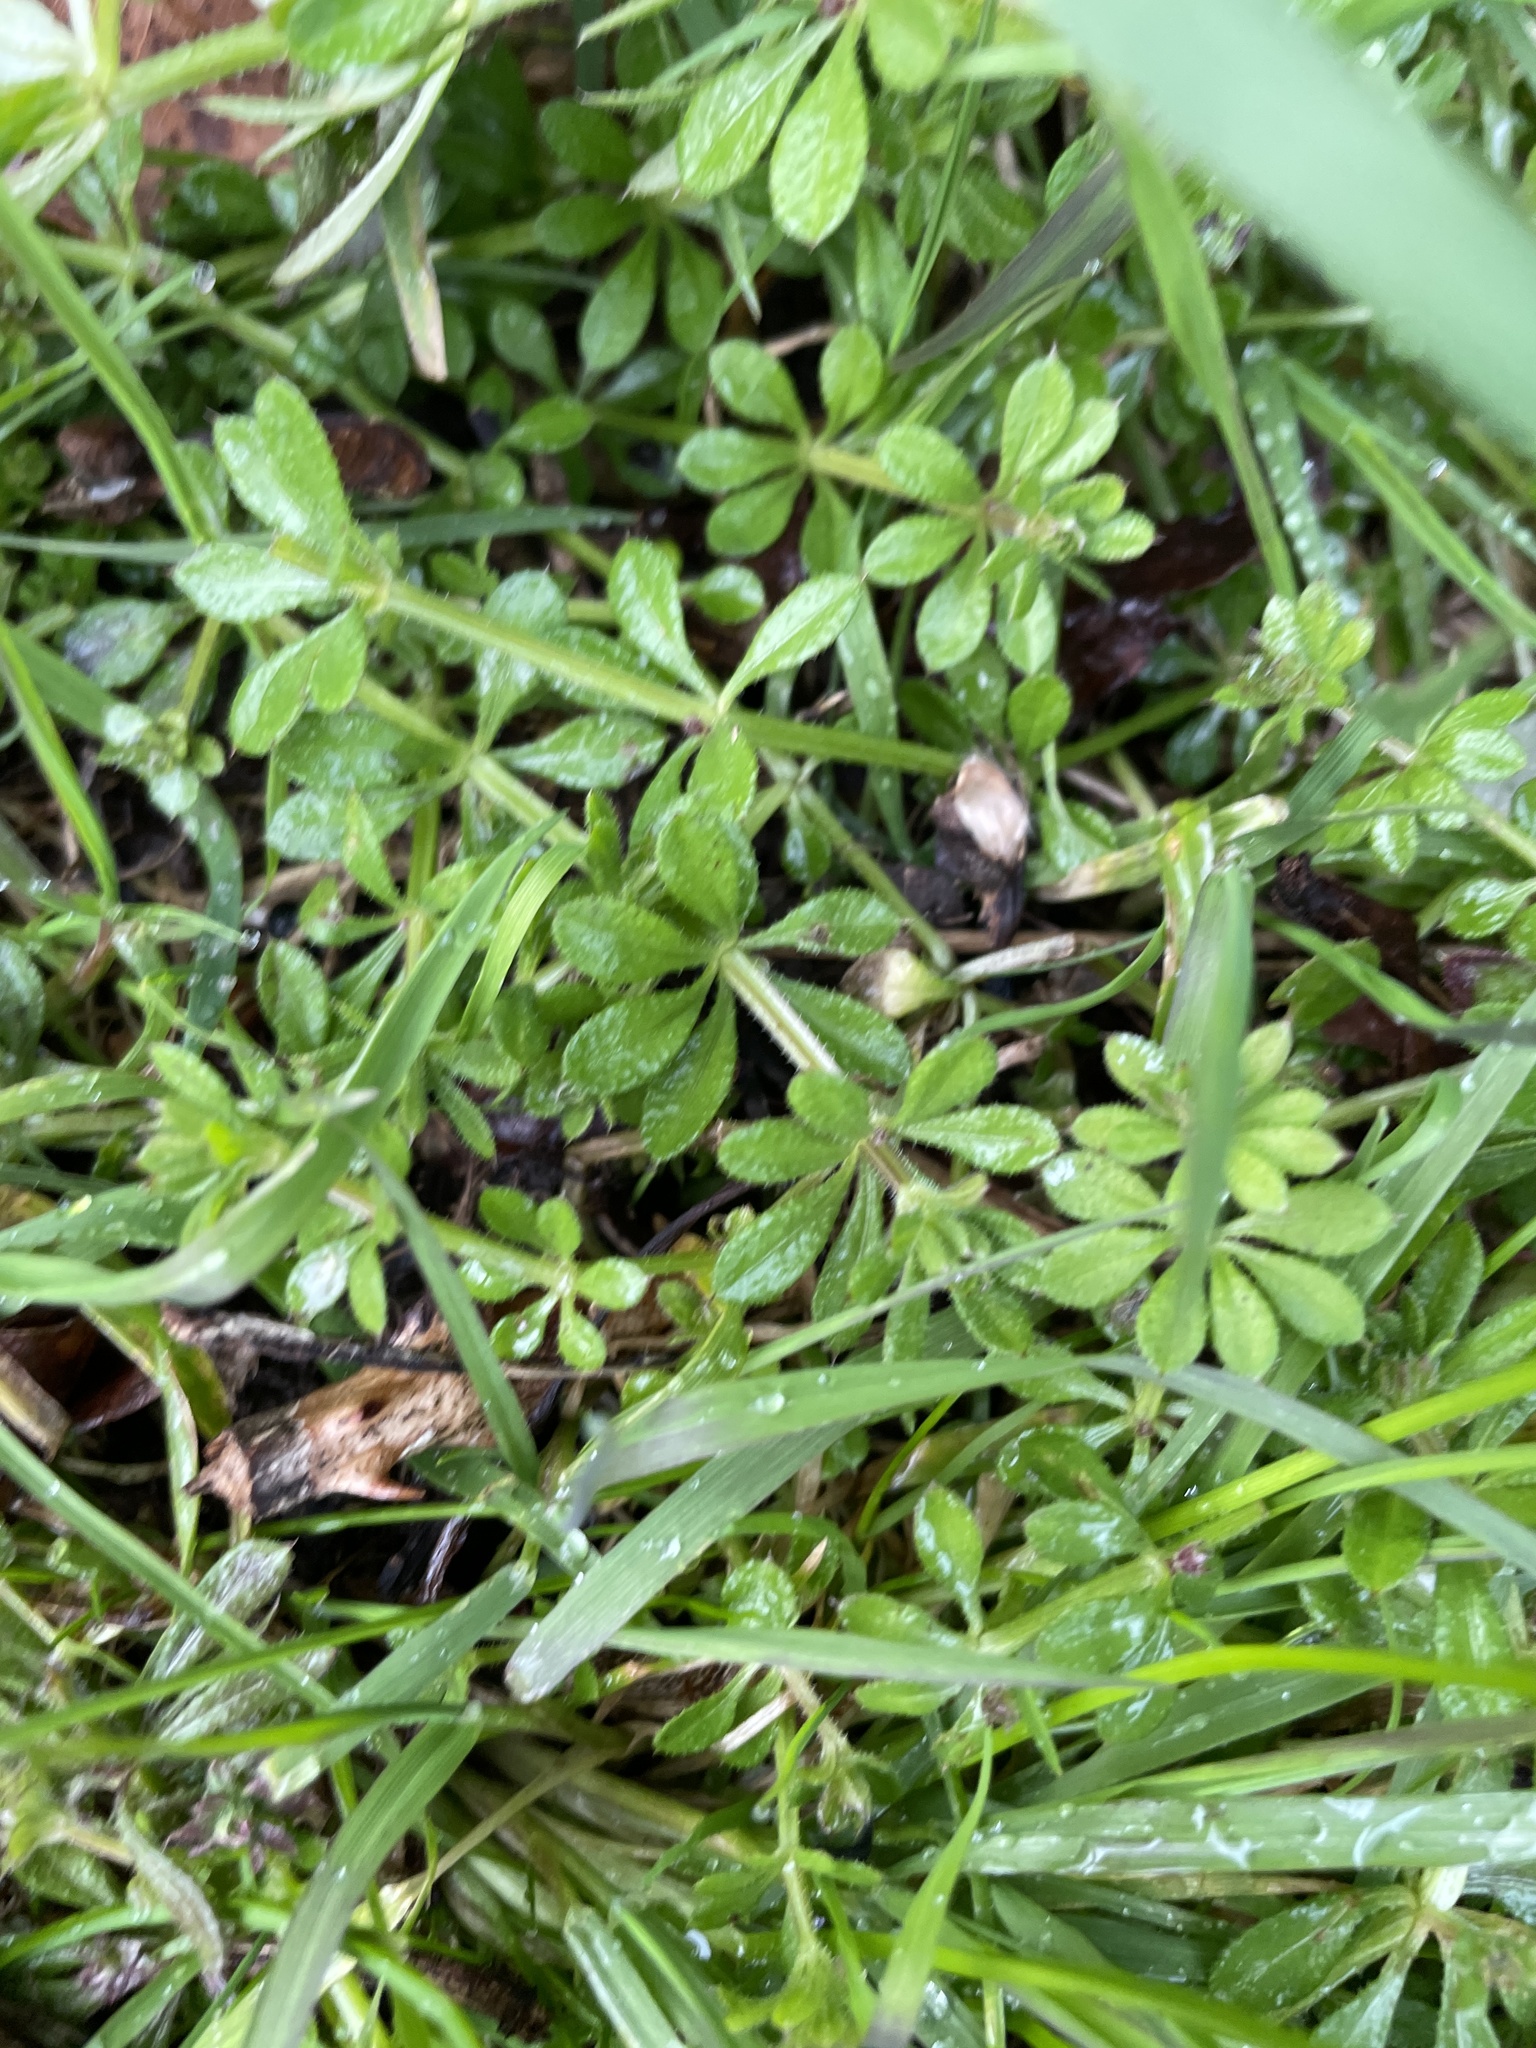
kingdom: Plantae
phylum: Tracheophyta
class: Magnoliopsida
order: Gentianales
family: Rubiaceae
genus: Galium
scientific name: Galium aparine
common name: Cleavers
